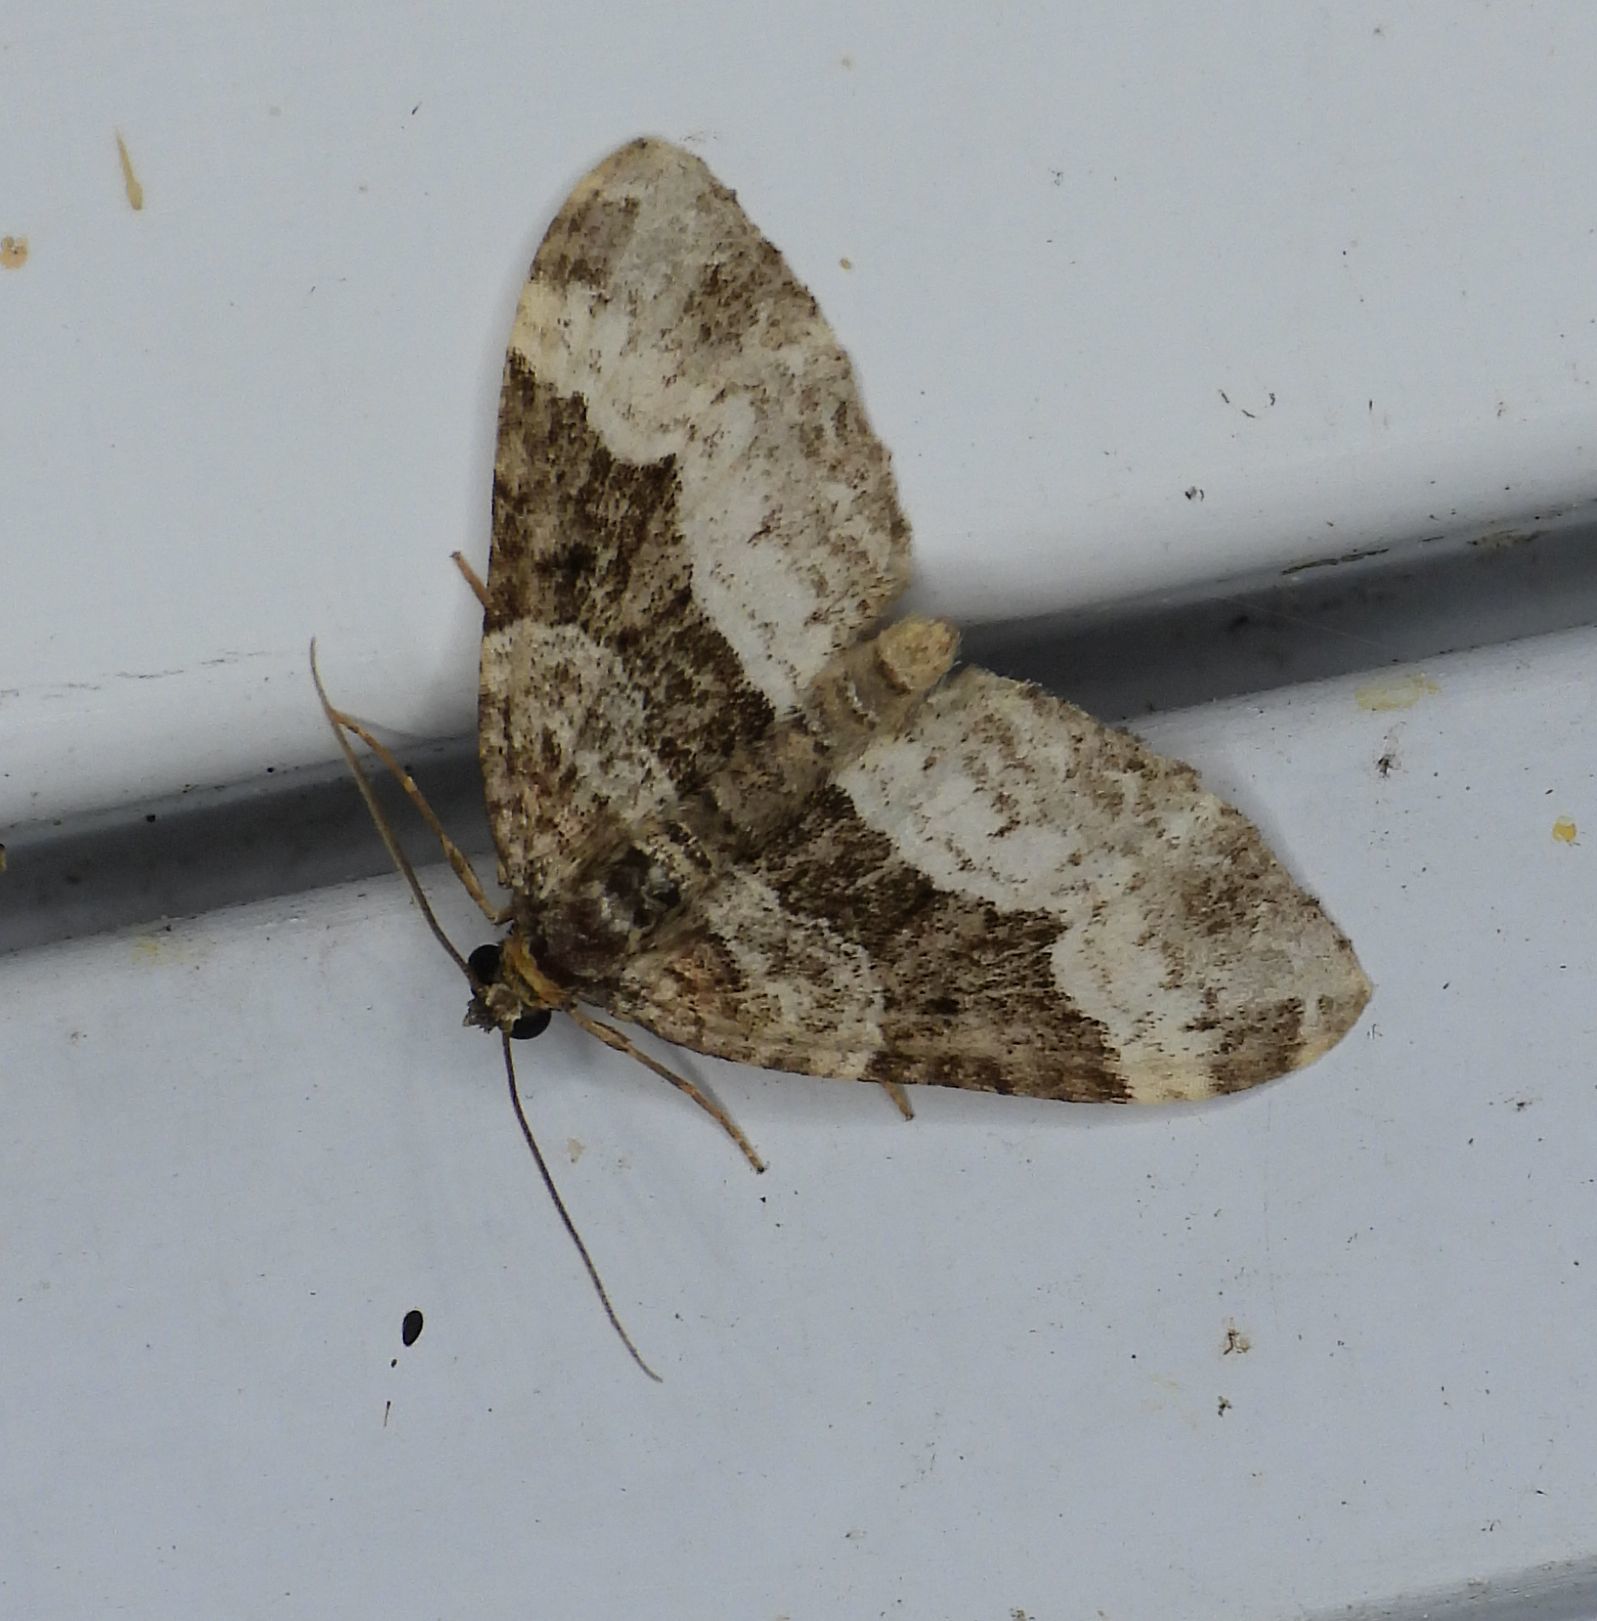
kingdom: Animalia
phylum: Arthropoda
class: Insecta
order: Lepidoptera
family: Geometridae
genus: Euphyia
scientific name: Euphyia intermediata
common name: Sharp-angled carpet
